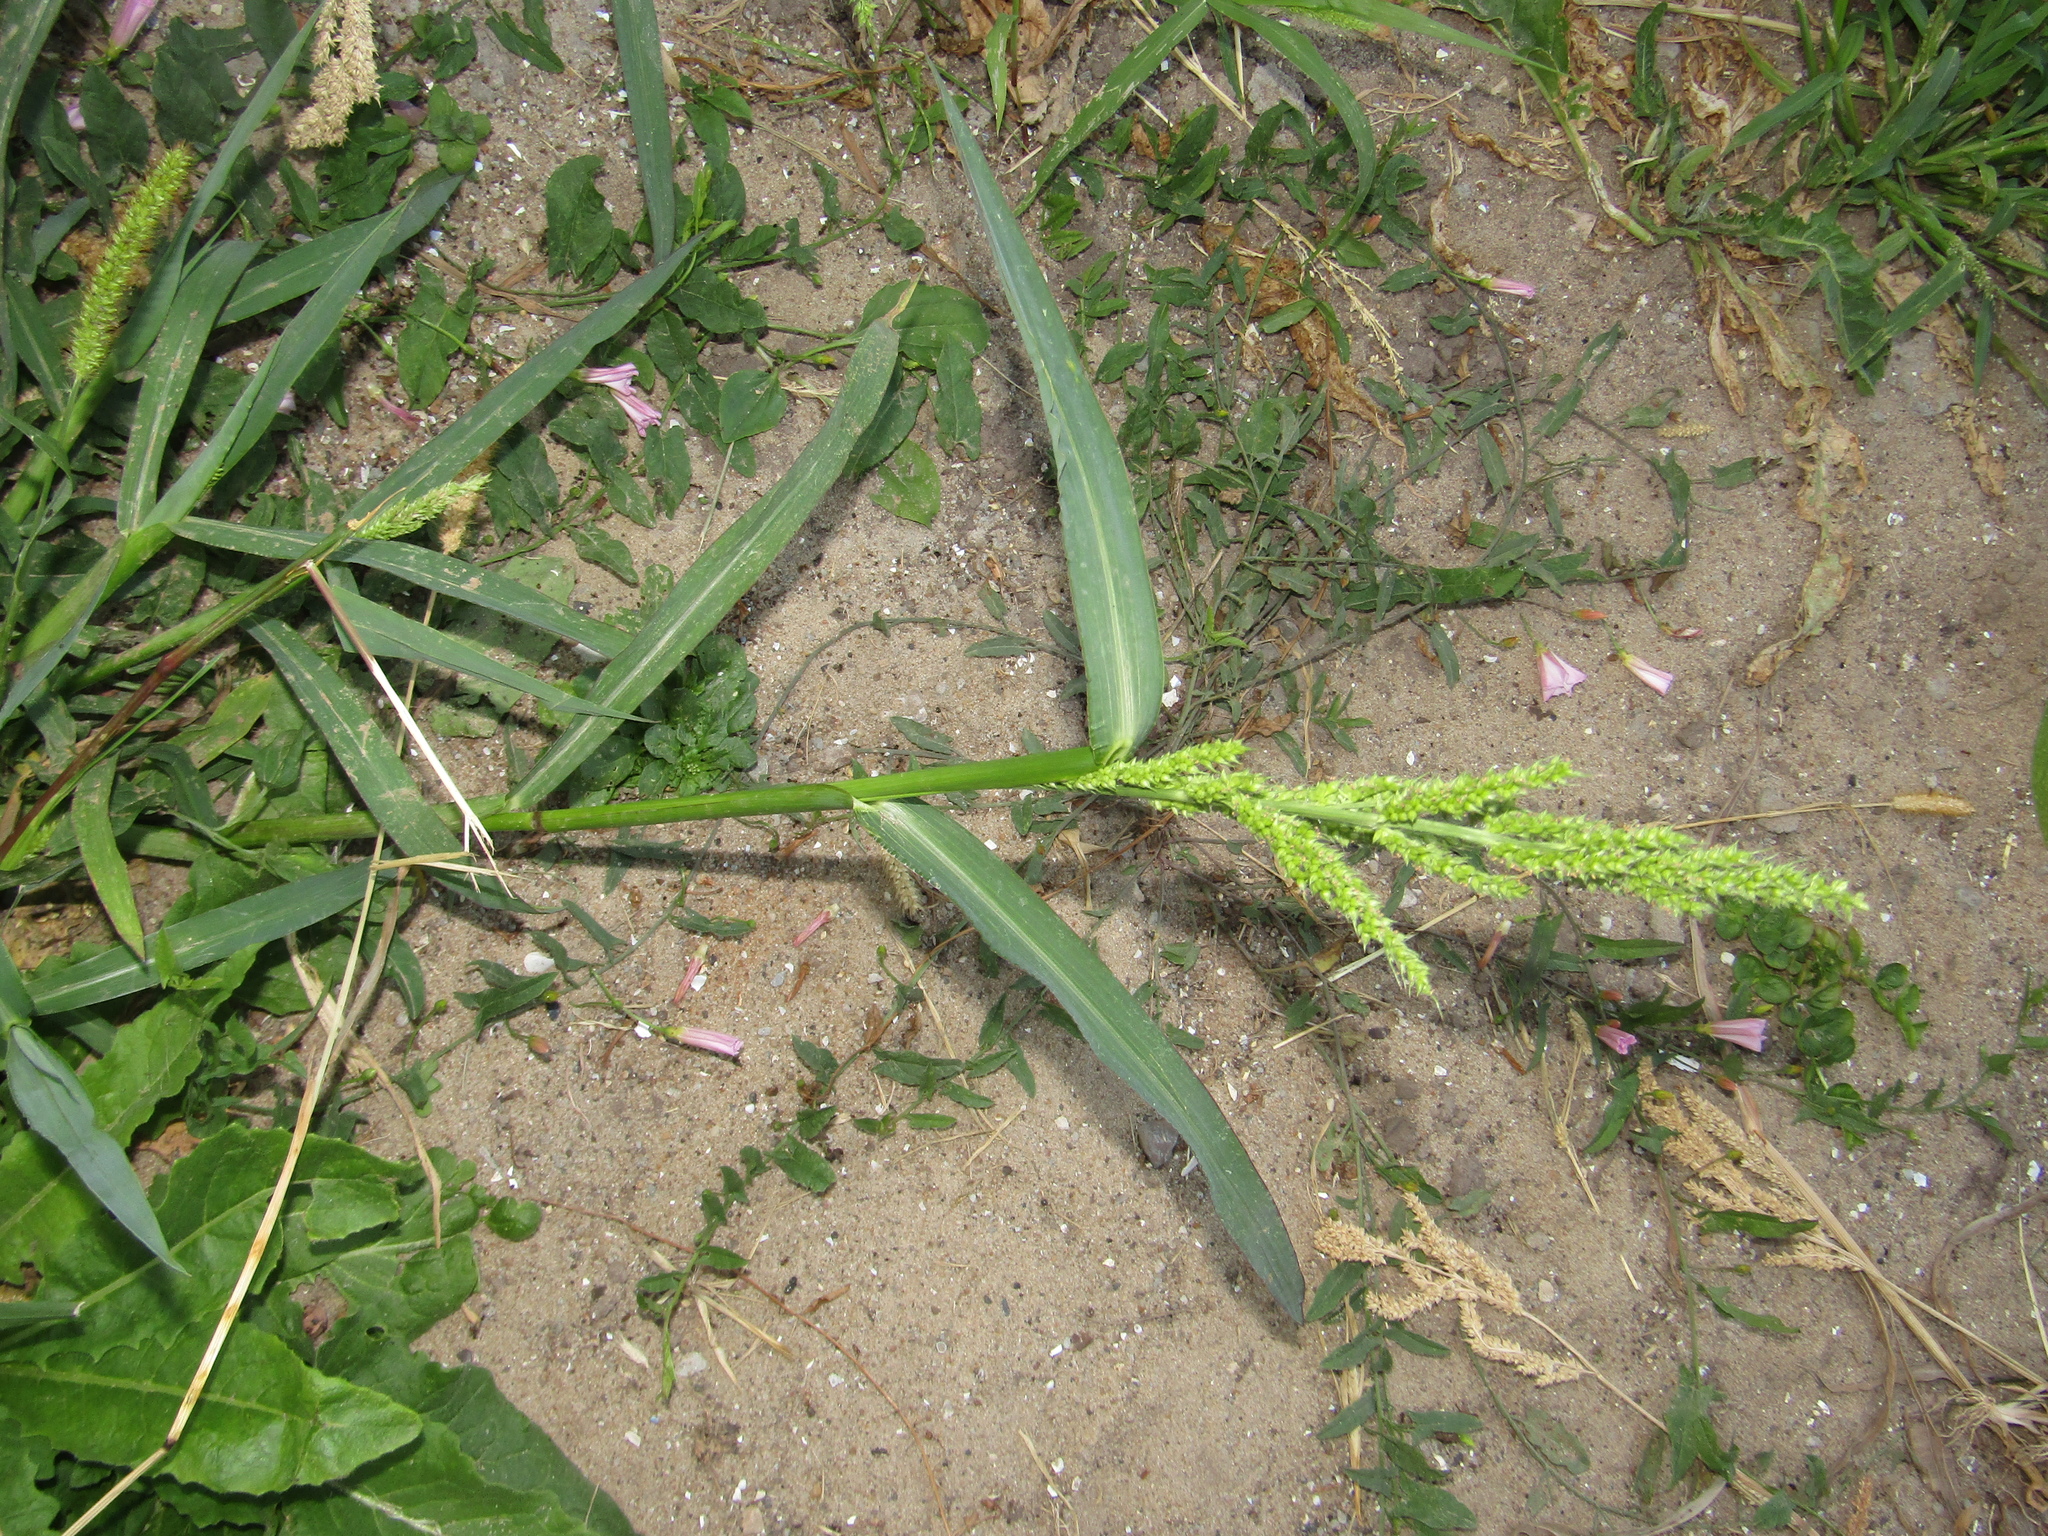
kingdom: Plantae
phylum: Tracheophyta
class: Liliopsida
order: Poales
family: Poaceae
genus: Echinochloa
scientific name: Echinochloa crus-galli
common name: Cockspur
